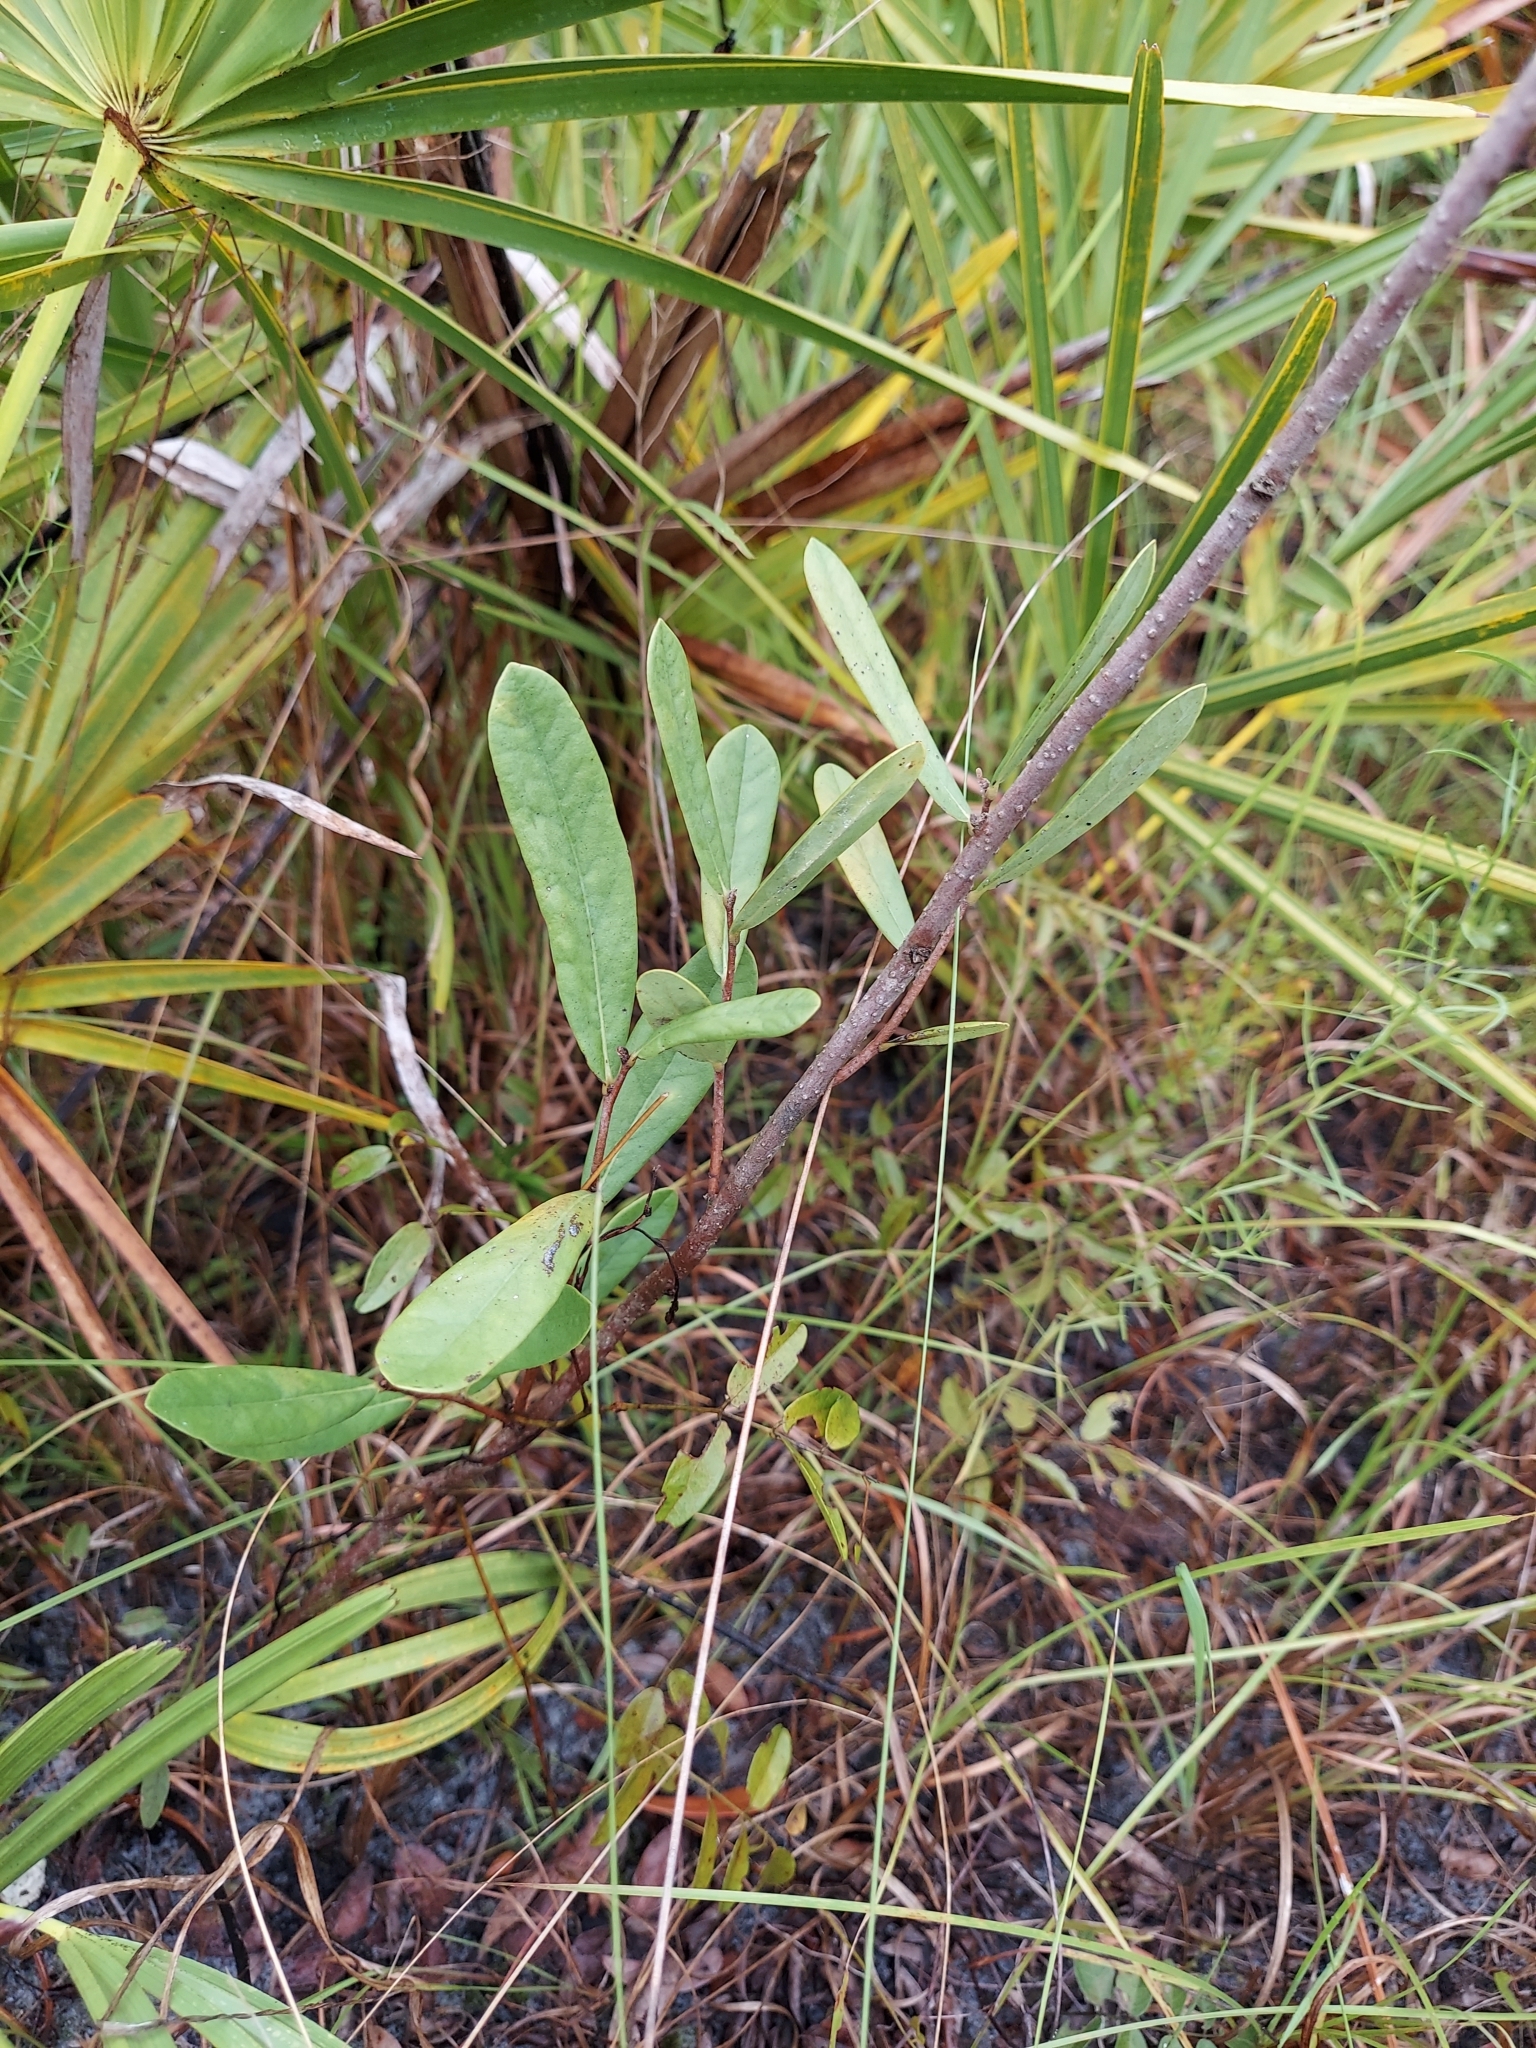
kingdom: Plantae
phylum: Tracheophyta
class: Magnoliopsida
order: Magnoliales
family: Annonaceae
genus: Asimina
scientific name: Asimina reticulata
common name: Flag pawpaw
